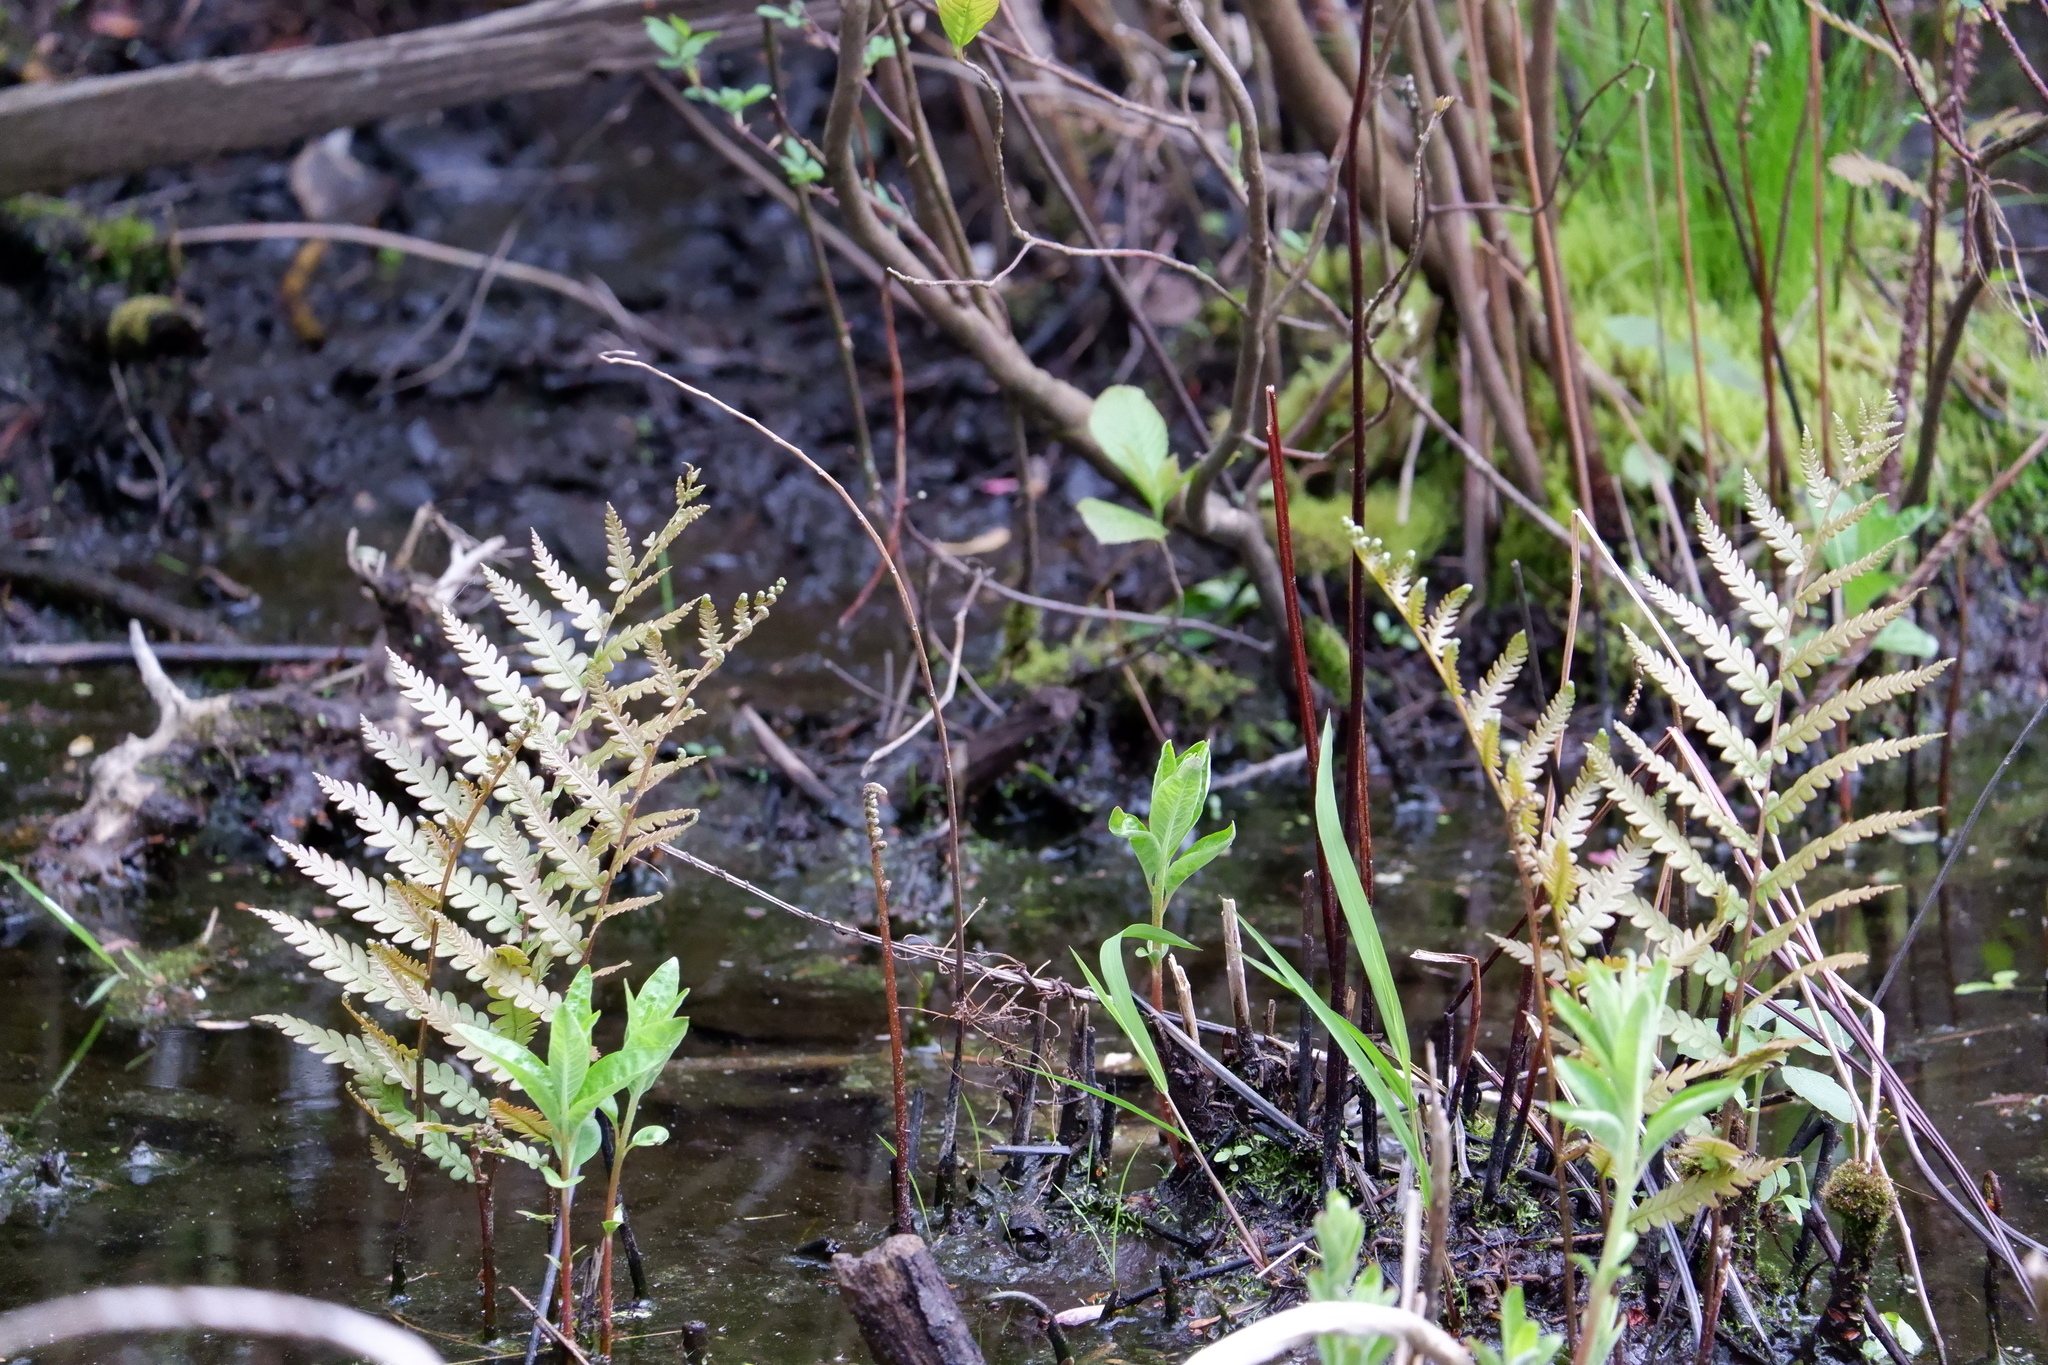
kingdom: Plantae
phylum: Tracheophyta
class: Polypodiopsida
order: Polypodiales
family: Blechnaceae
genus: Anchistea
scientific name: Anchistea virginica
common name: Virginia chain fern
